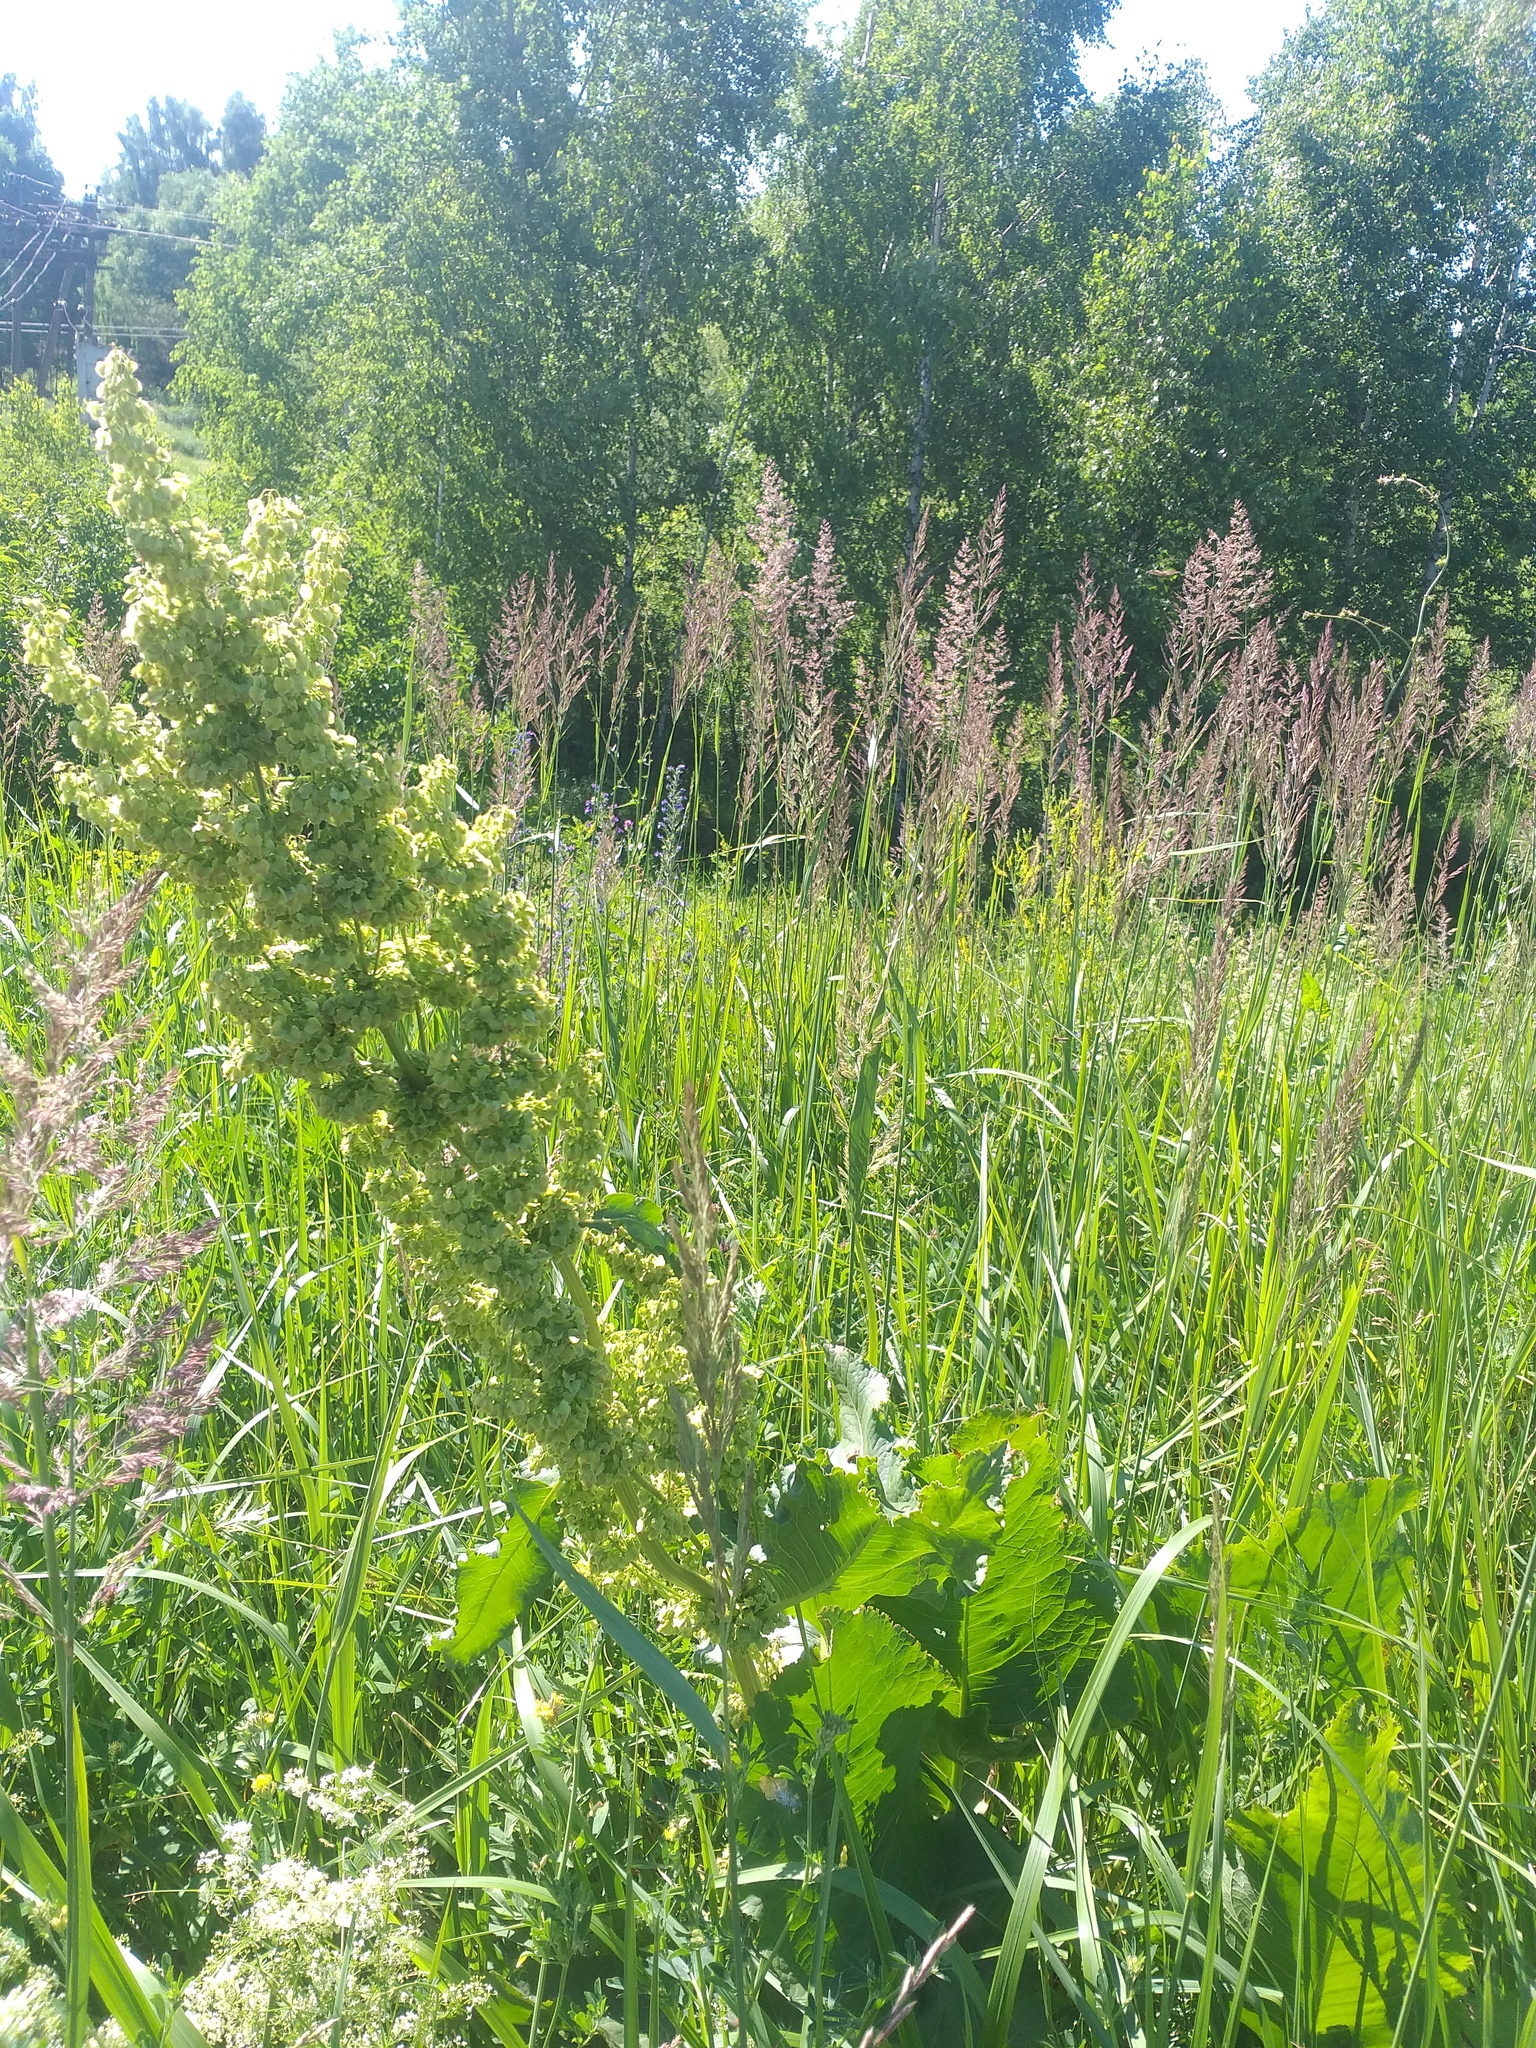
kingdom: Plantae
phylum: Tracheophyta
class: Magnoliopsida
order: Caryophyllales
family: Polygonaceae
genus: Rumex
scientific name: Rumex confertus
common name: Russian dock
